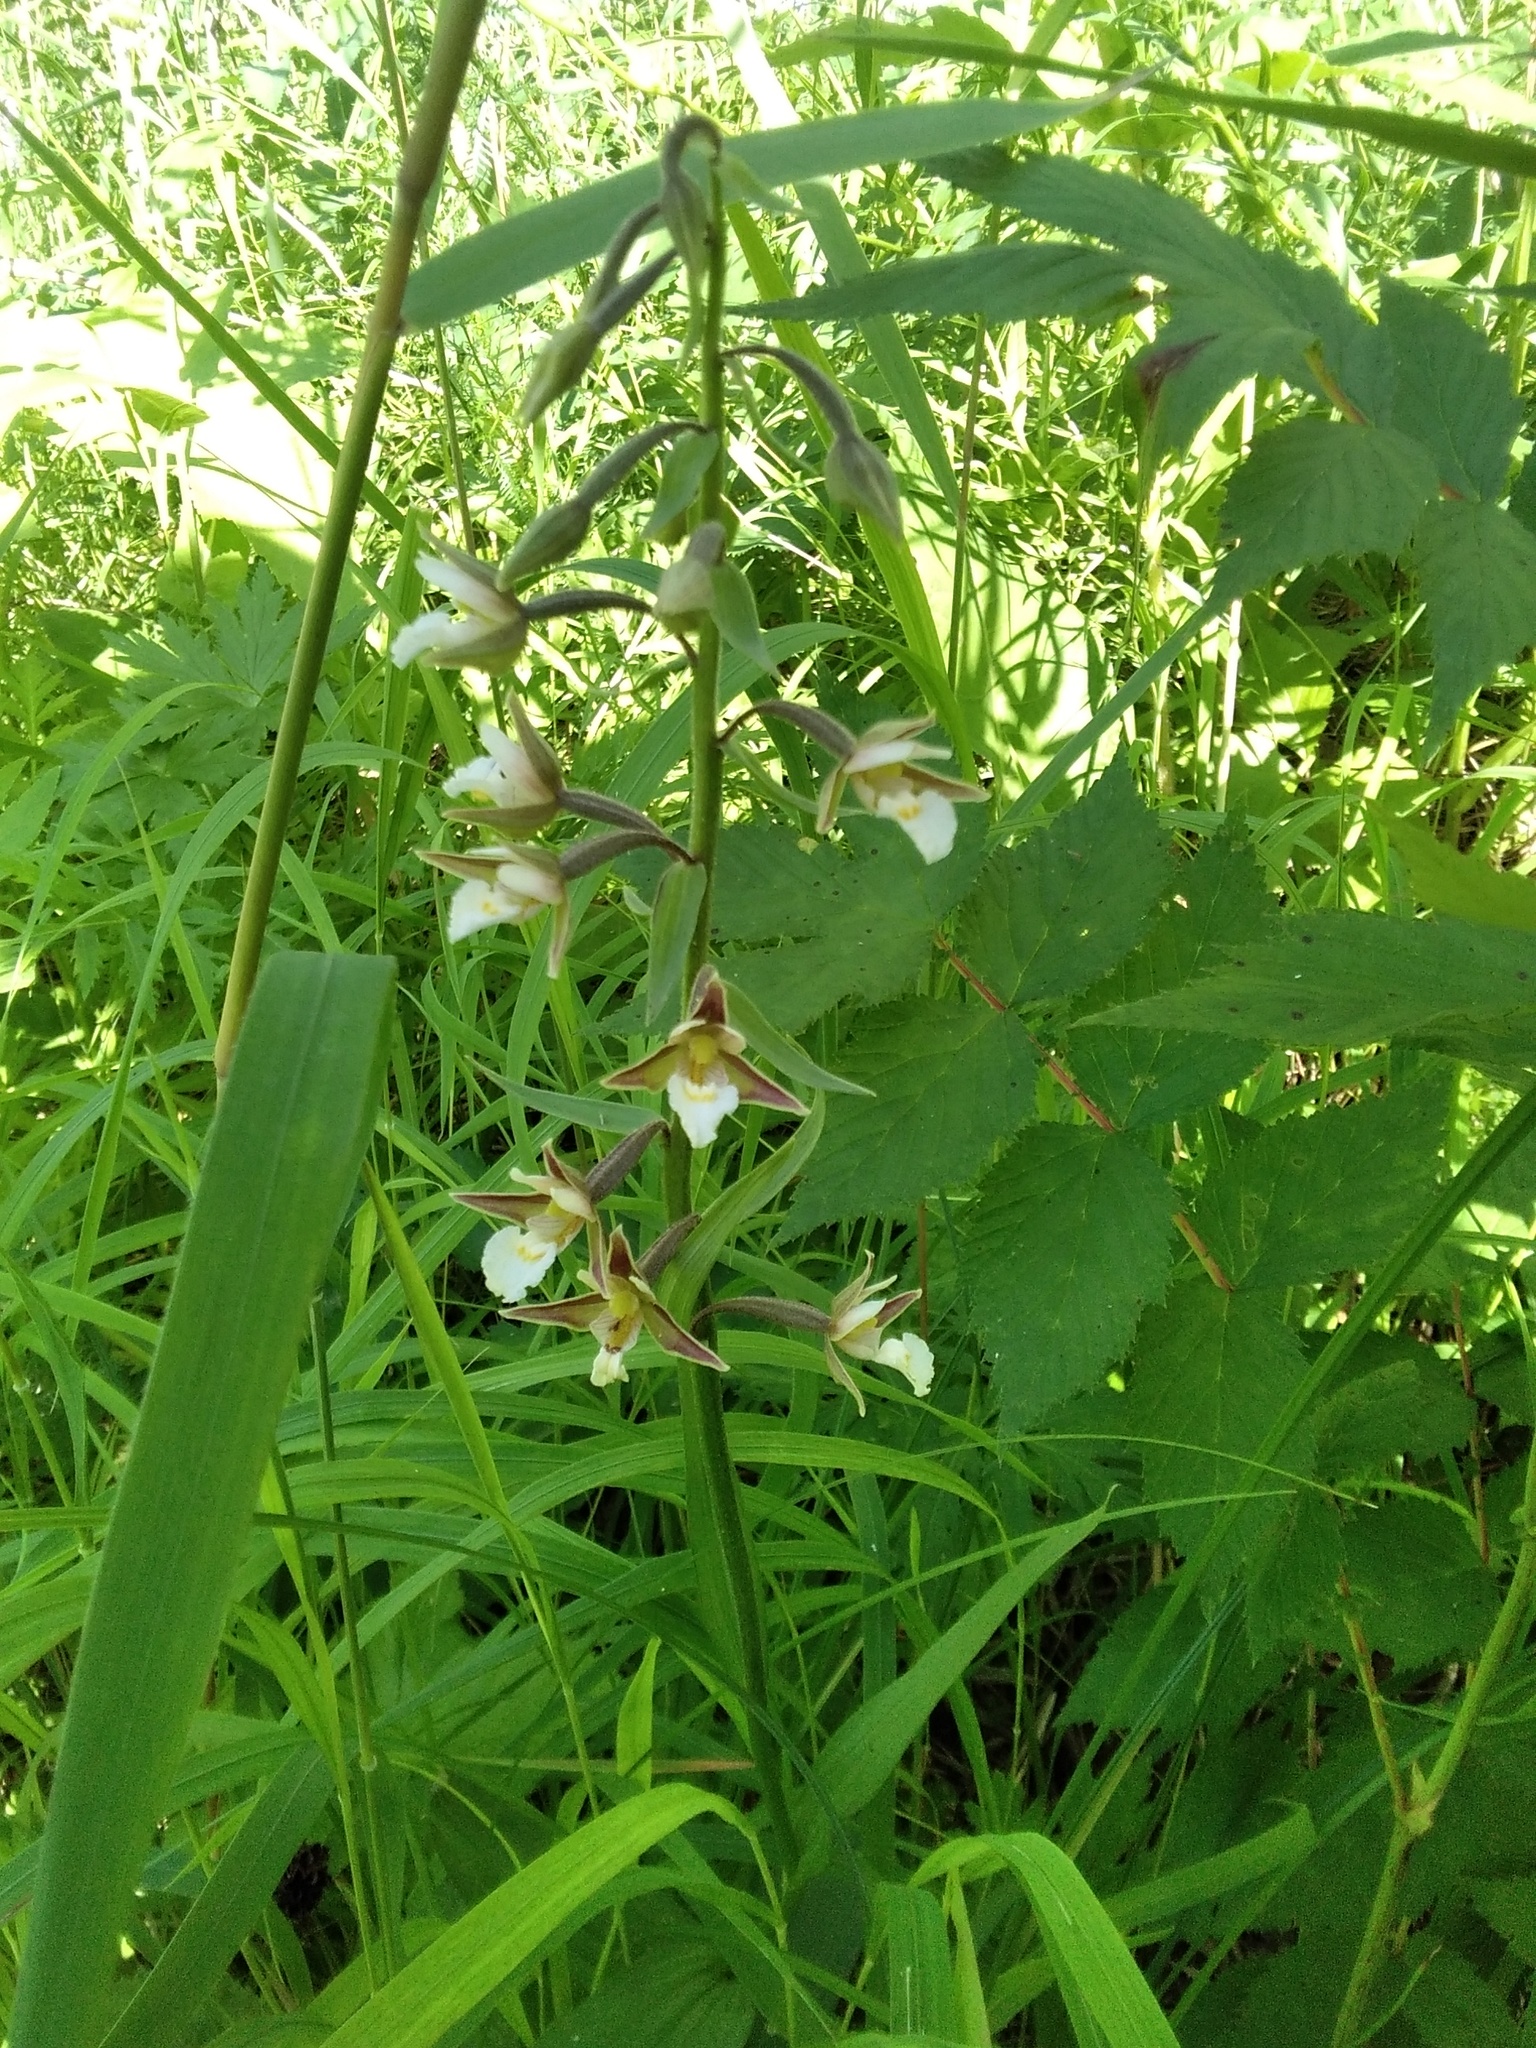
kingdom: Plantae
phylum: Tracheophyta
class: Liliopsida
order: Asparagales
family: Orchidaceae
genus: Epipactis
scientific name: Epipactis palustris
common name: Marsh helleborine
